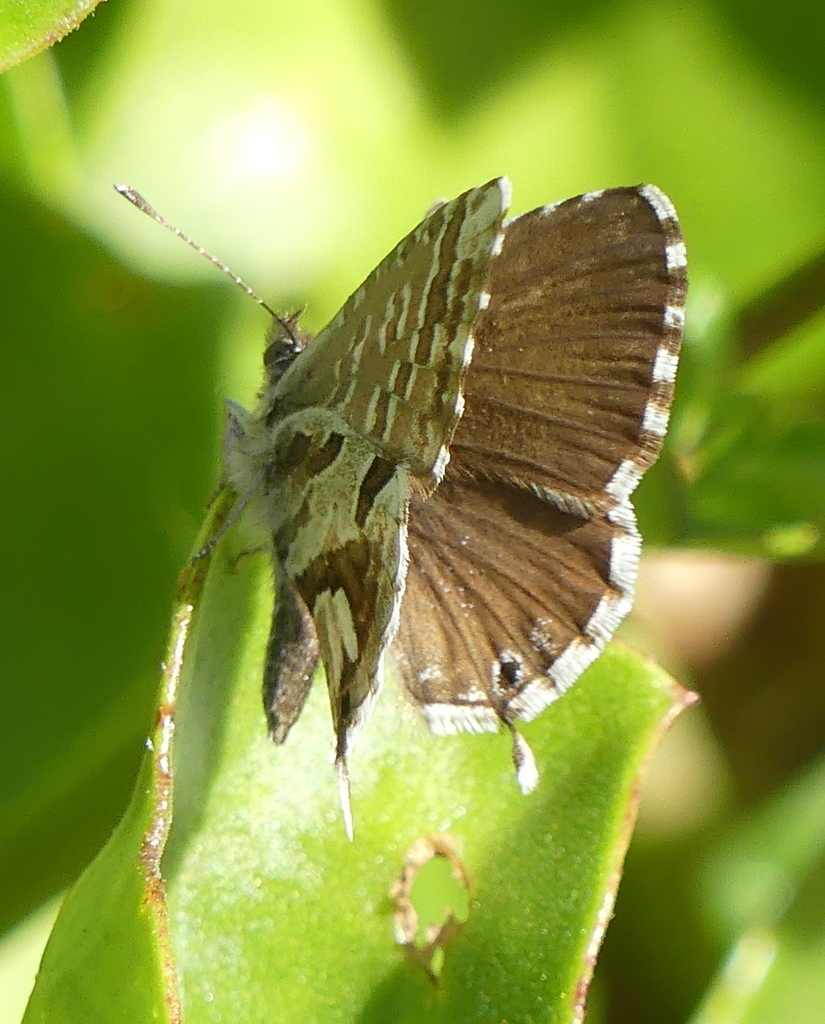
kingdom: Animalia
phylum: Arthropoda
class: Insecta
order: Lepidoptera
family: Lycaenidae
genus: Cacyreus
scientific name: Cacyreus marshalli
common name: Geranium bronze
